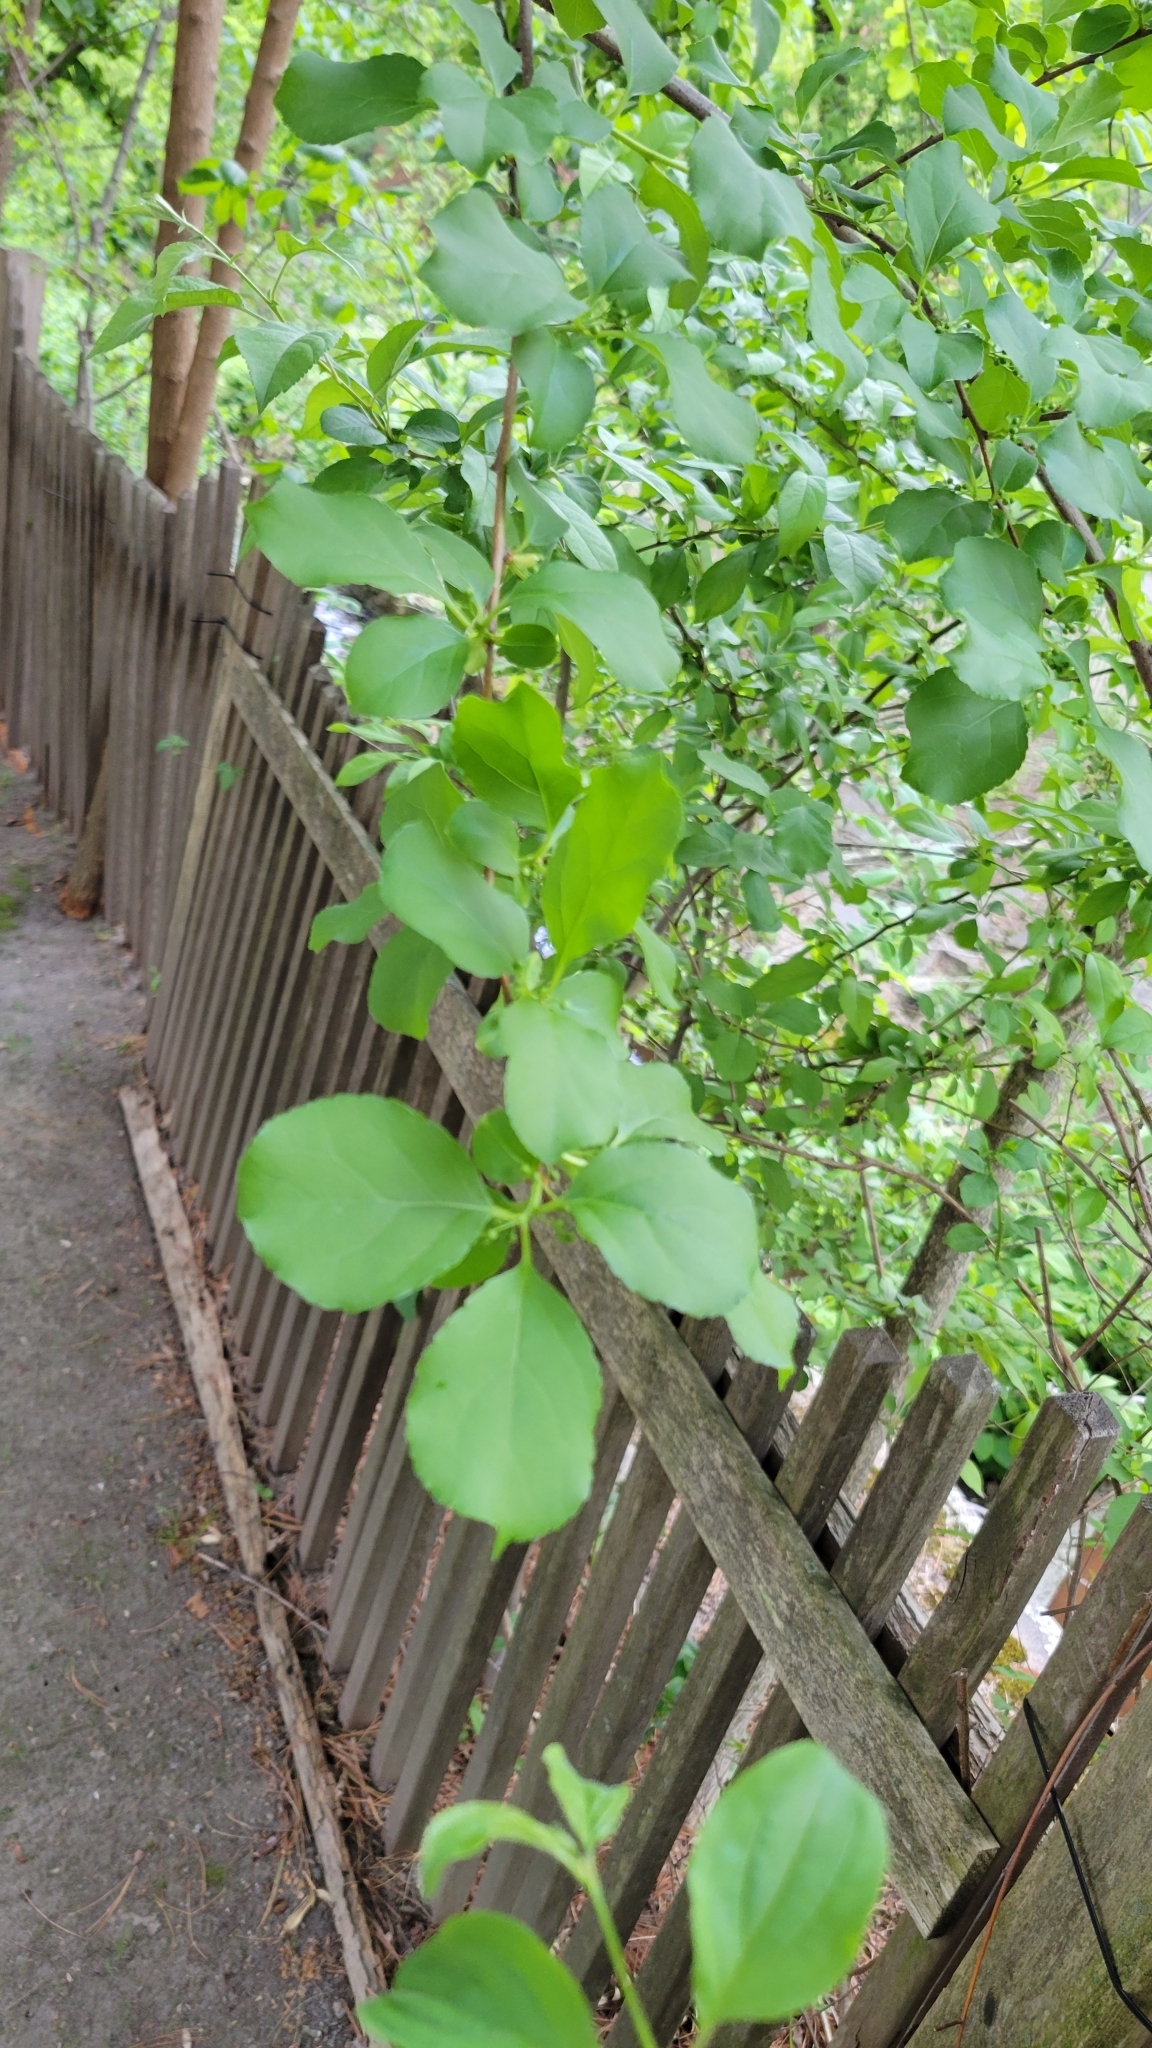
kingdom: Plantae
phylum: Tracheophyta
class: Magnoliopsida
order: Celastrales
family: Celastraceae
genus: Celastrus
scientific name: Celastrus orbiculatus
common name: Oriental bittersweet
